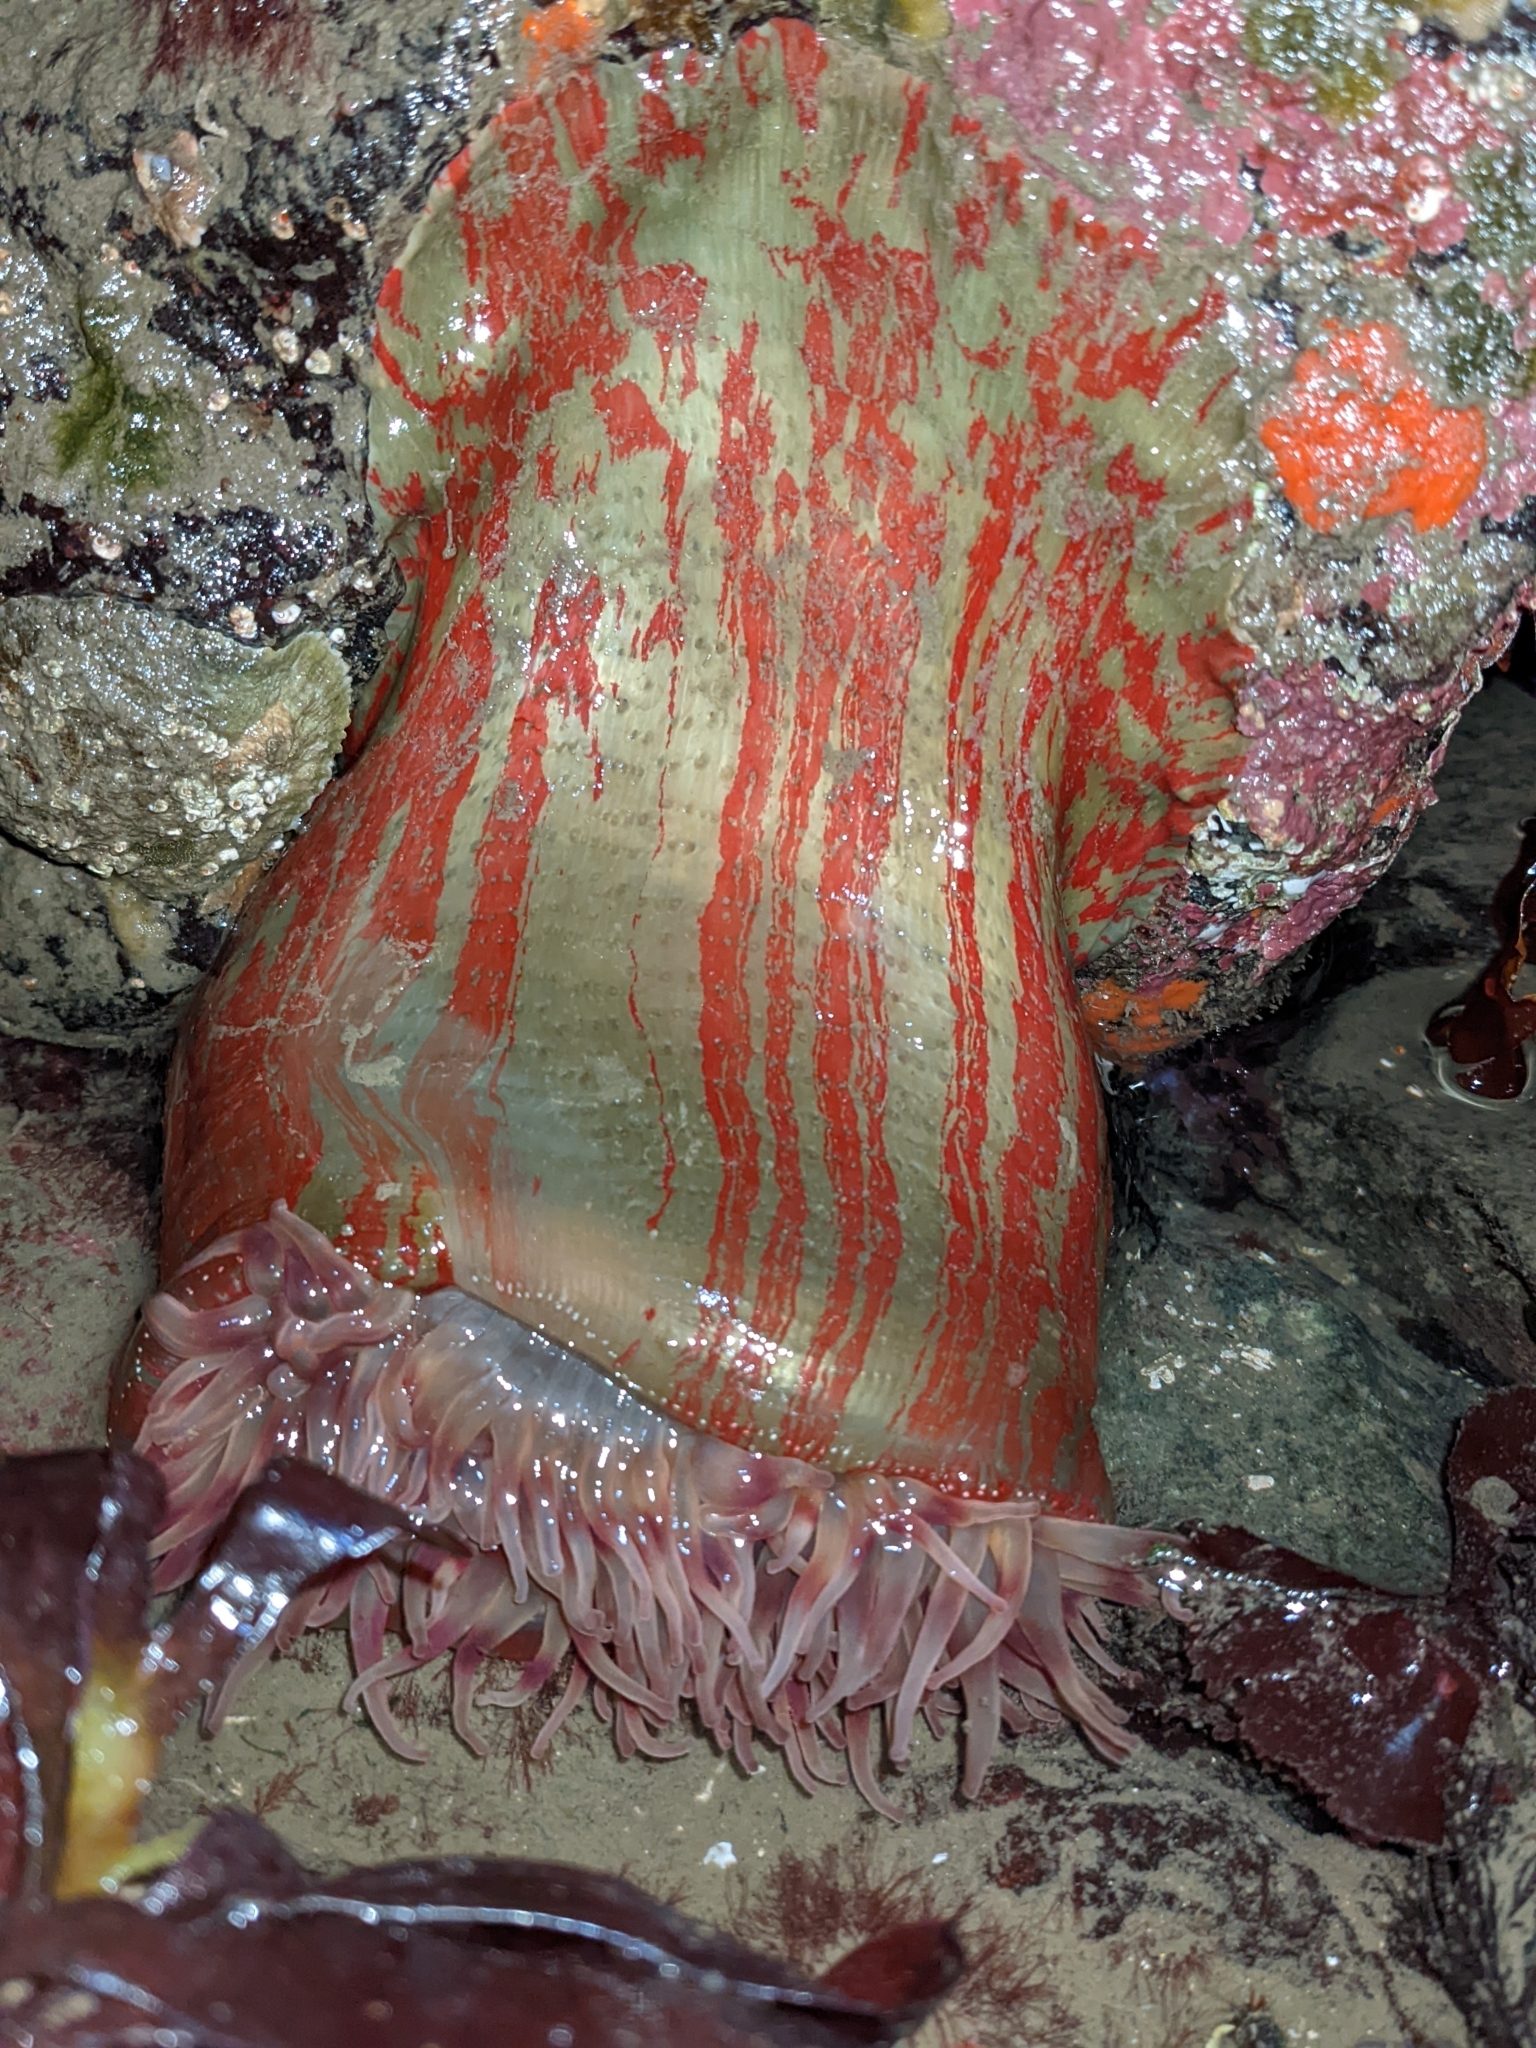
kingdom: Animalia
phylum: Cnidaria
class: Anthozoa
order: Actiniaria
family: Actiniidae
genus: Urticina
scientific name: Urticina grebelnyi
